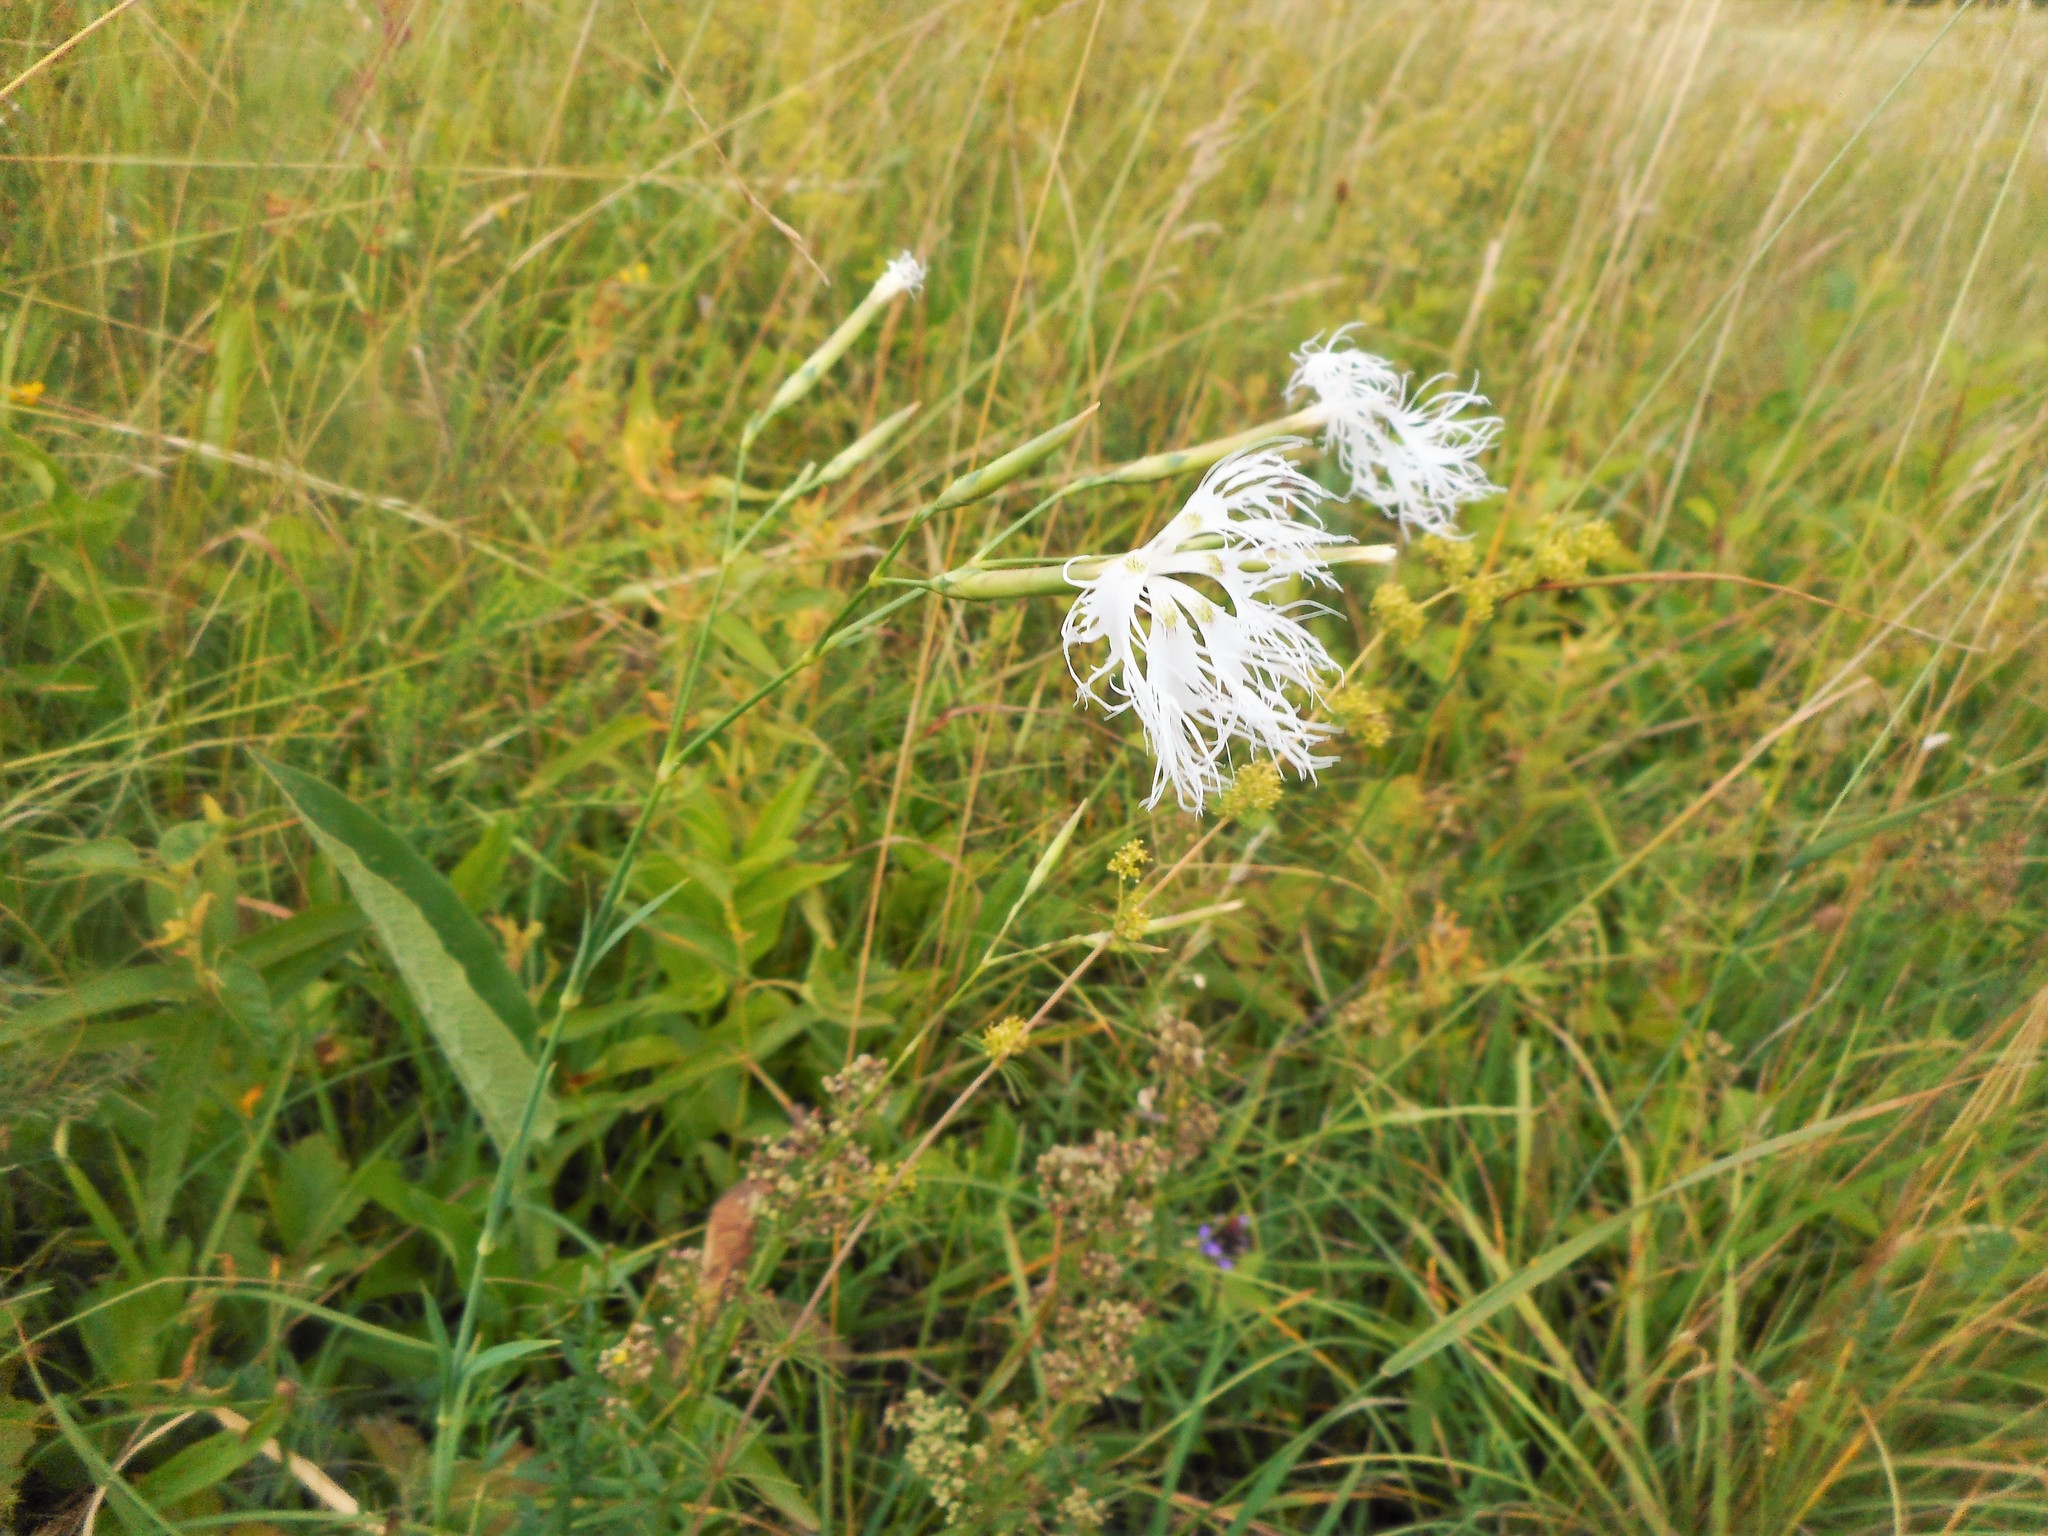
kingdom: Plantae
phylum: Tracheophyta
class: Magnoliopsida
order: Caryophyllales
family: Caryophyllaceae
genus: Dianthus
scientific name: Dianthus superbus
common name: Fringed pink
